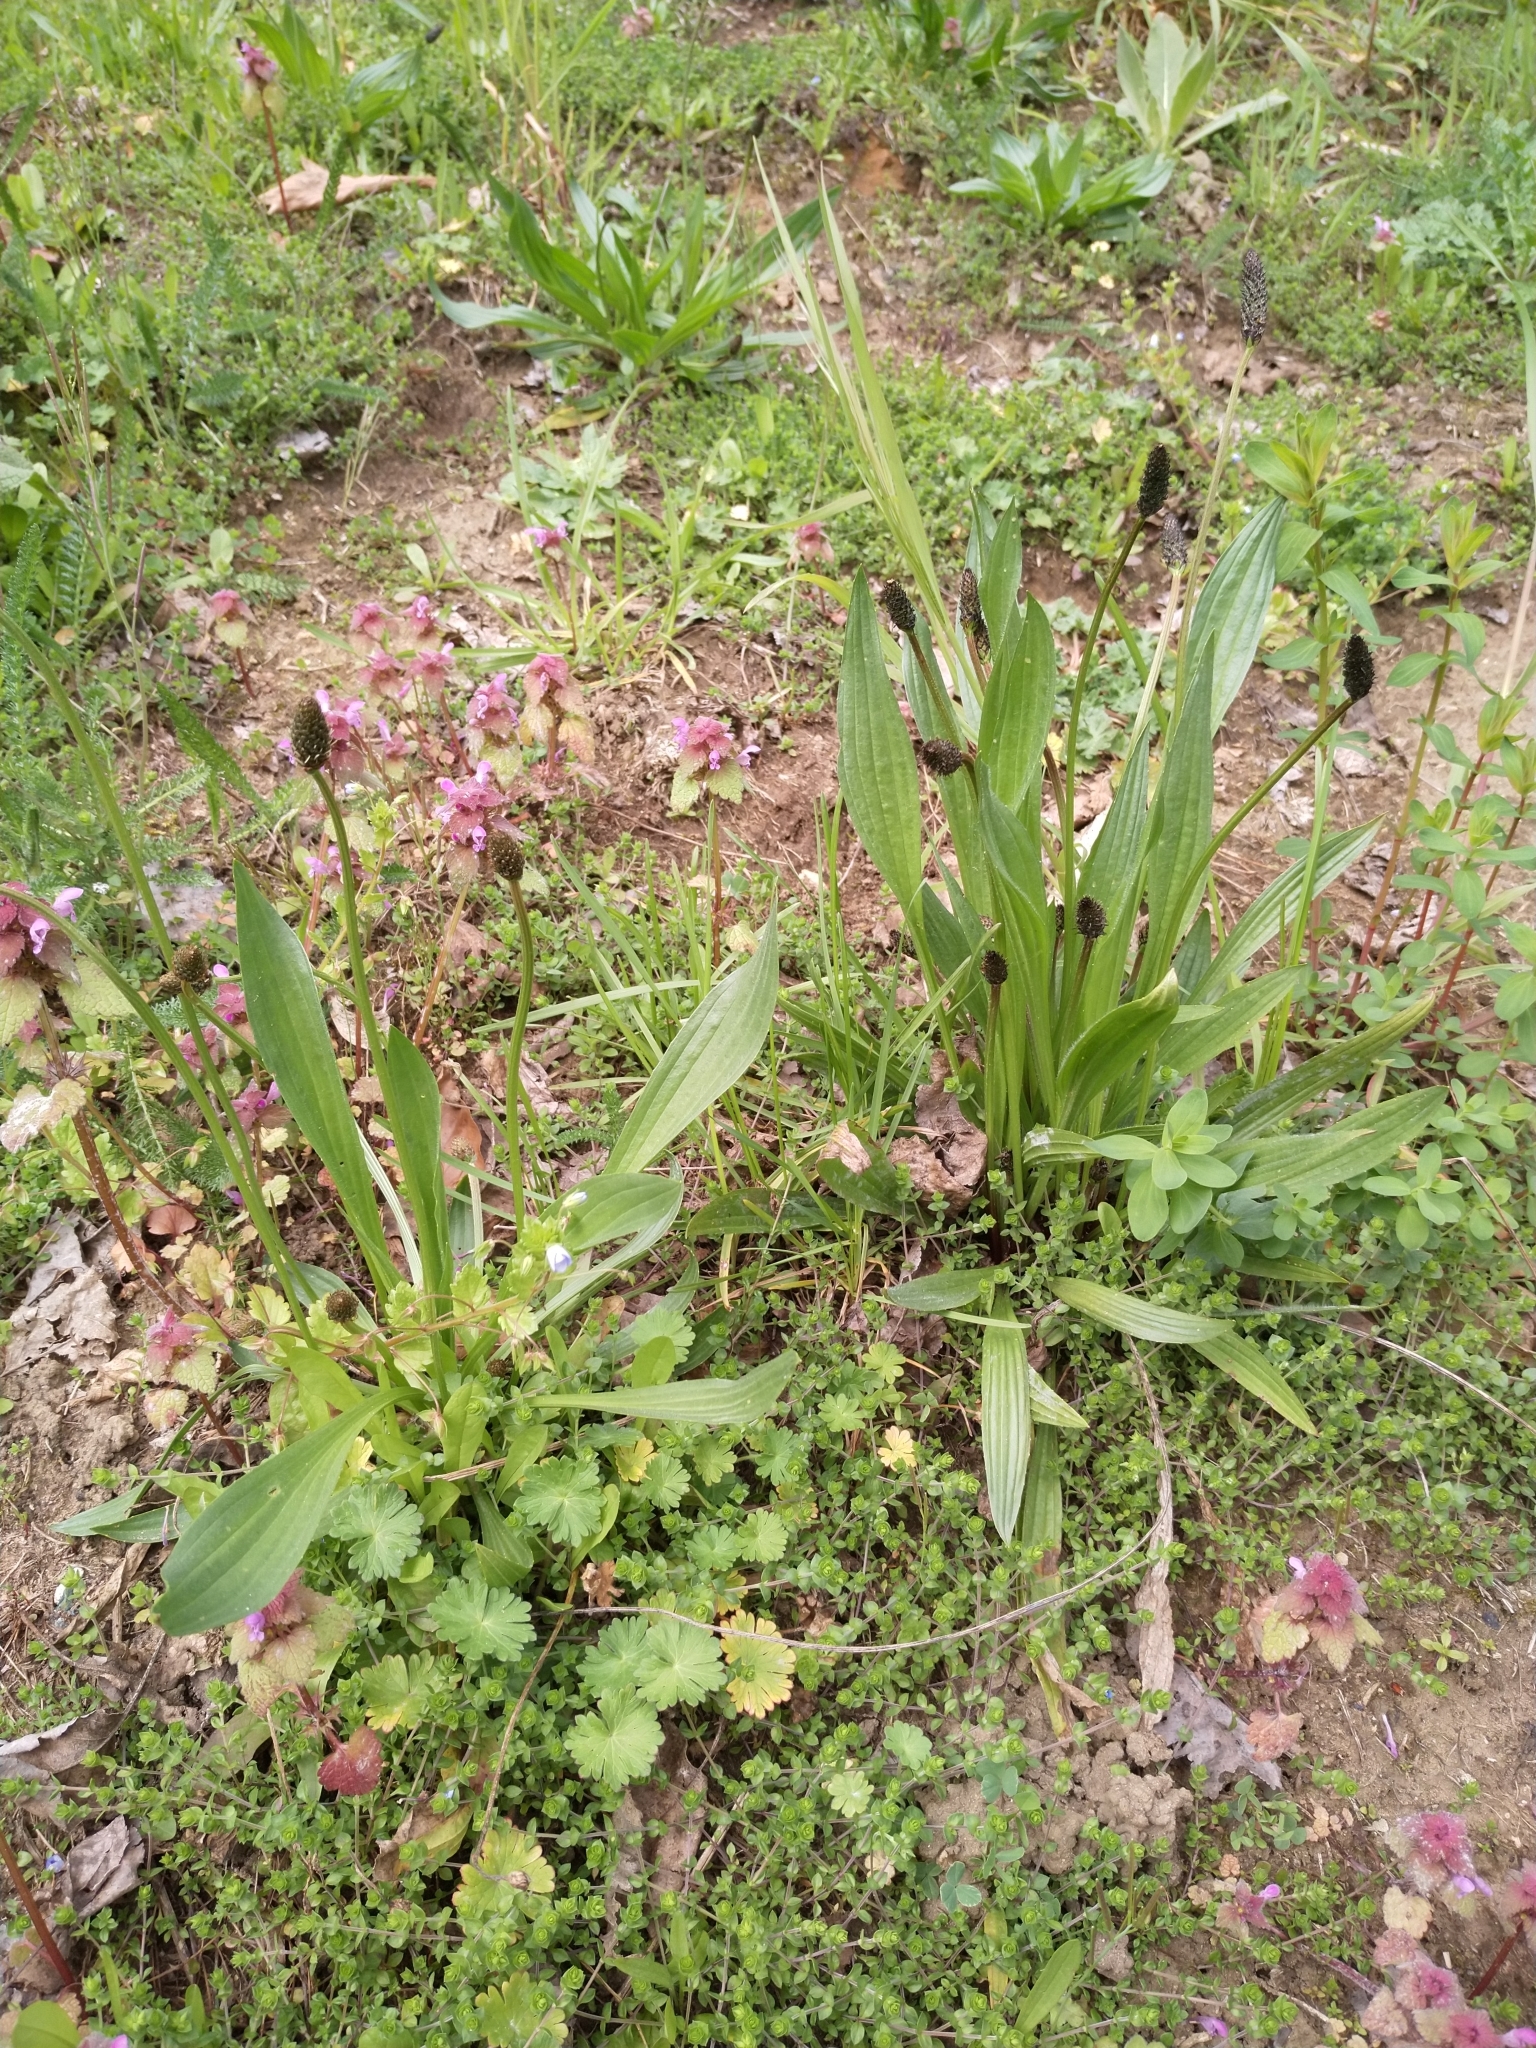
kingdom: Plantae
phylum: Tracheophyta
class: Magnoliopsida
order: Lamiales
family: Plantaginaceae
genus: Plantago
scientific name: Plantago lanceolata
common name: Ribwort plantain
